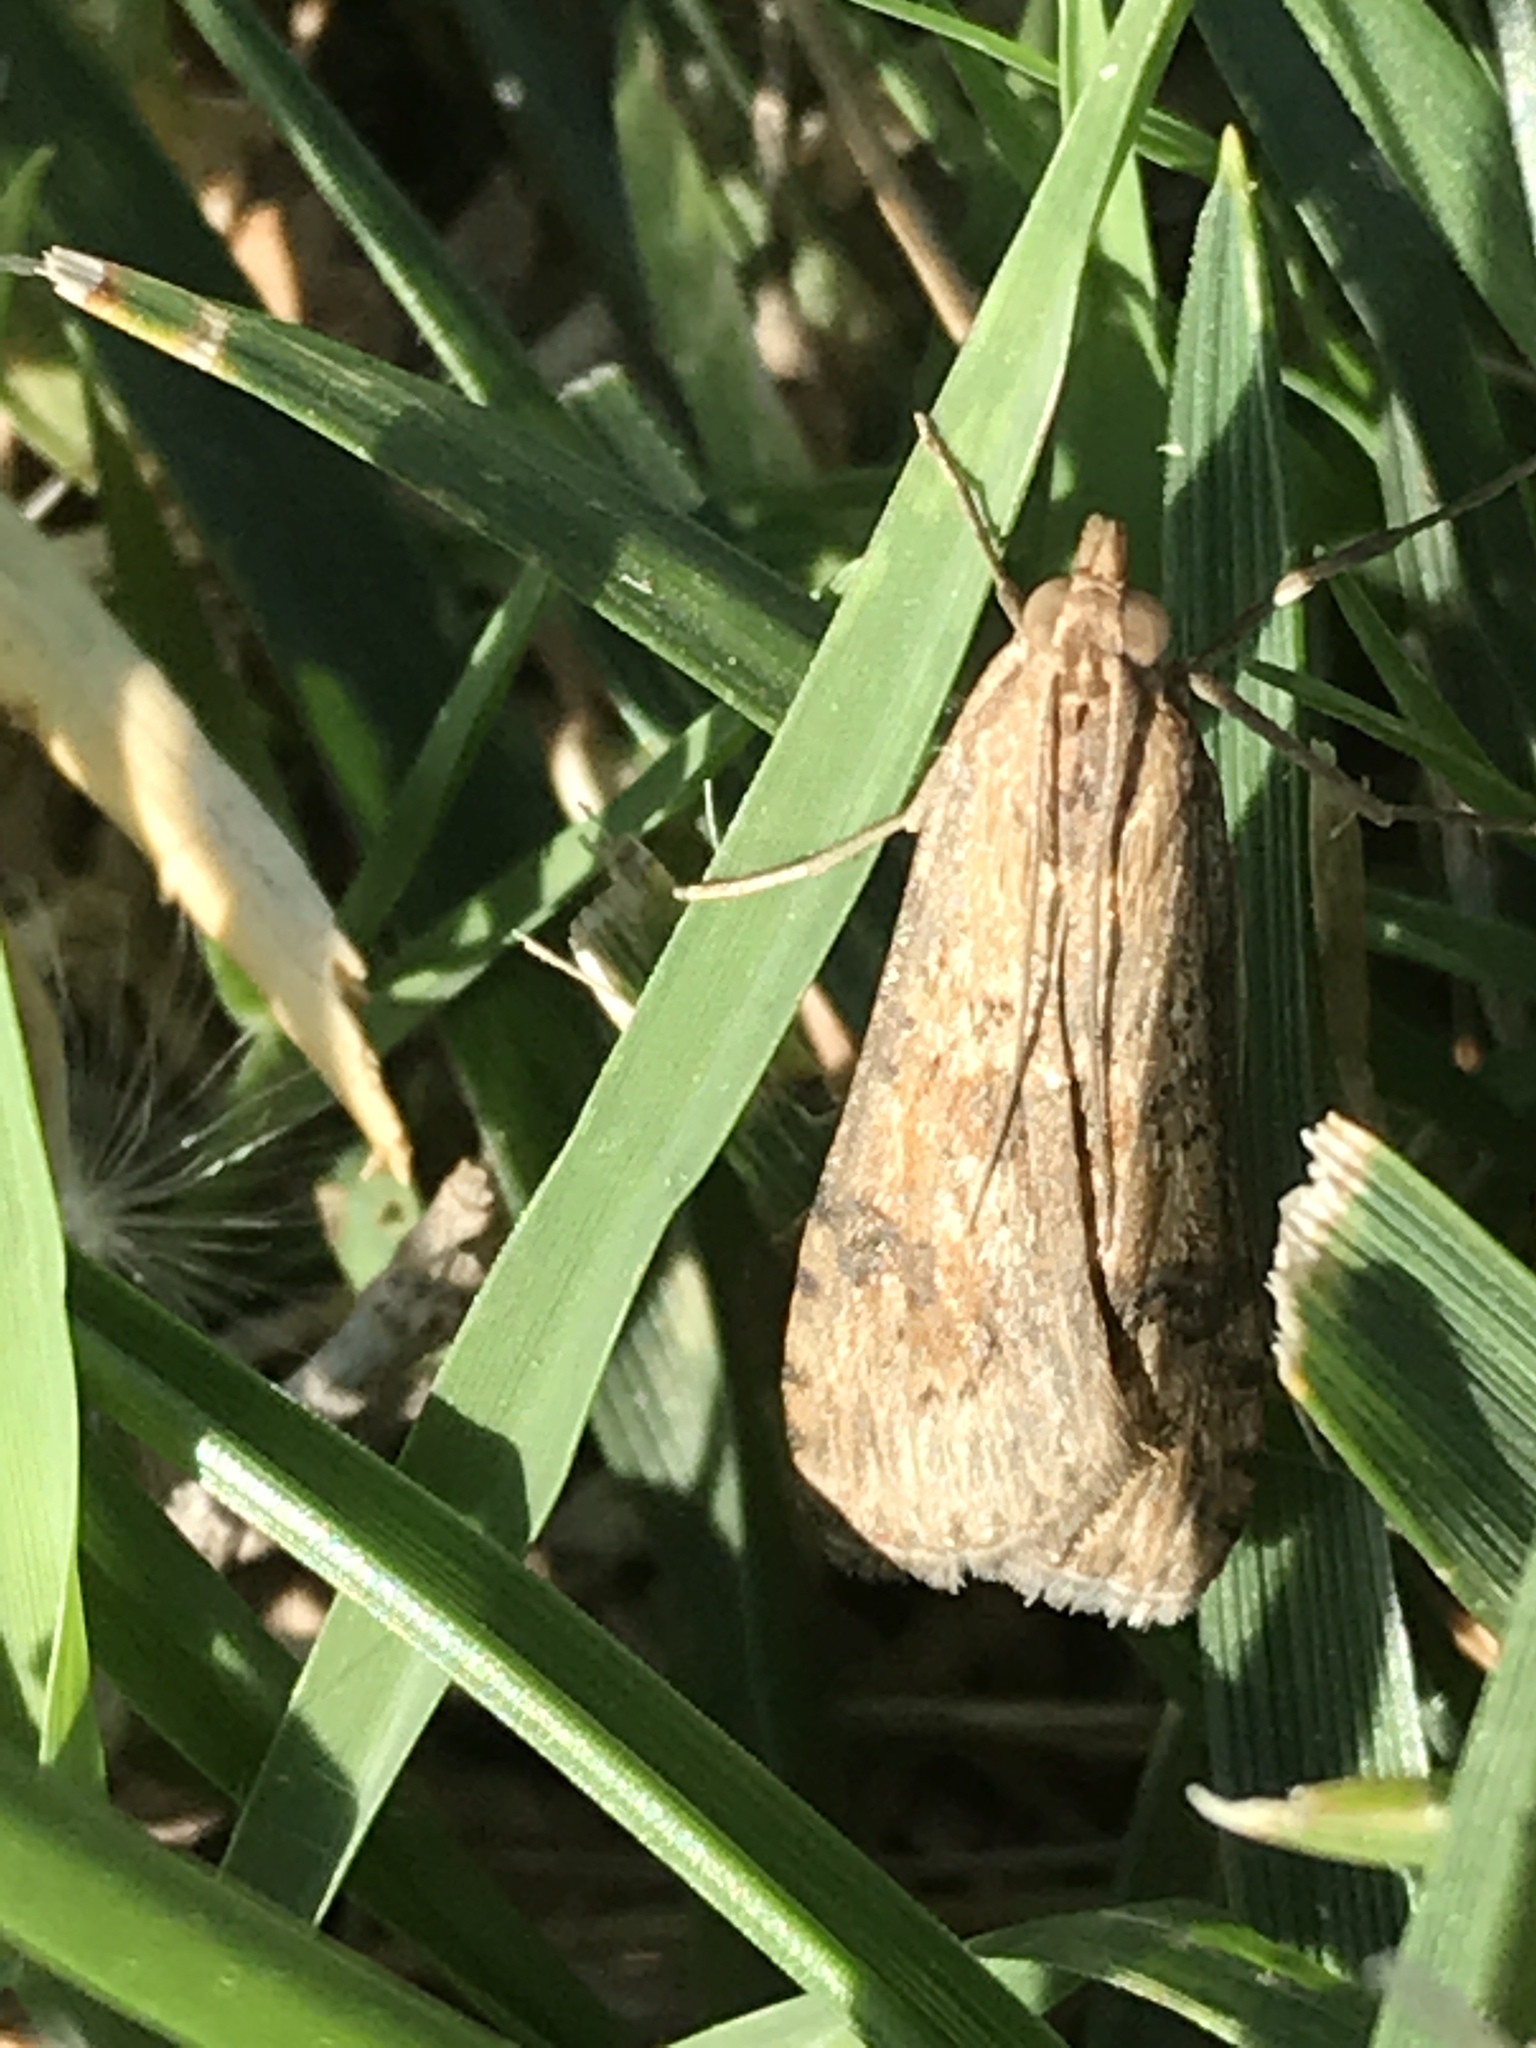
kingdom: Animalia
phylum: Arthropoda
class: Insecta
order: Lepidoptera
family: Crambidae
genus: Nomophila
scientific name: Nomophila nearctica
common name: American rush veneer
